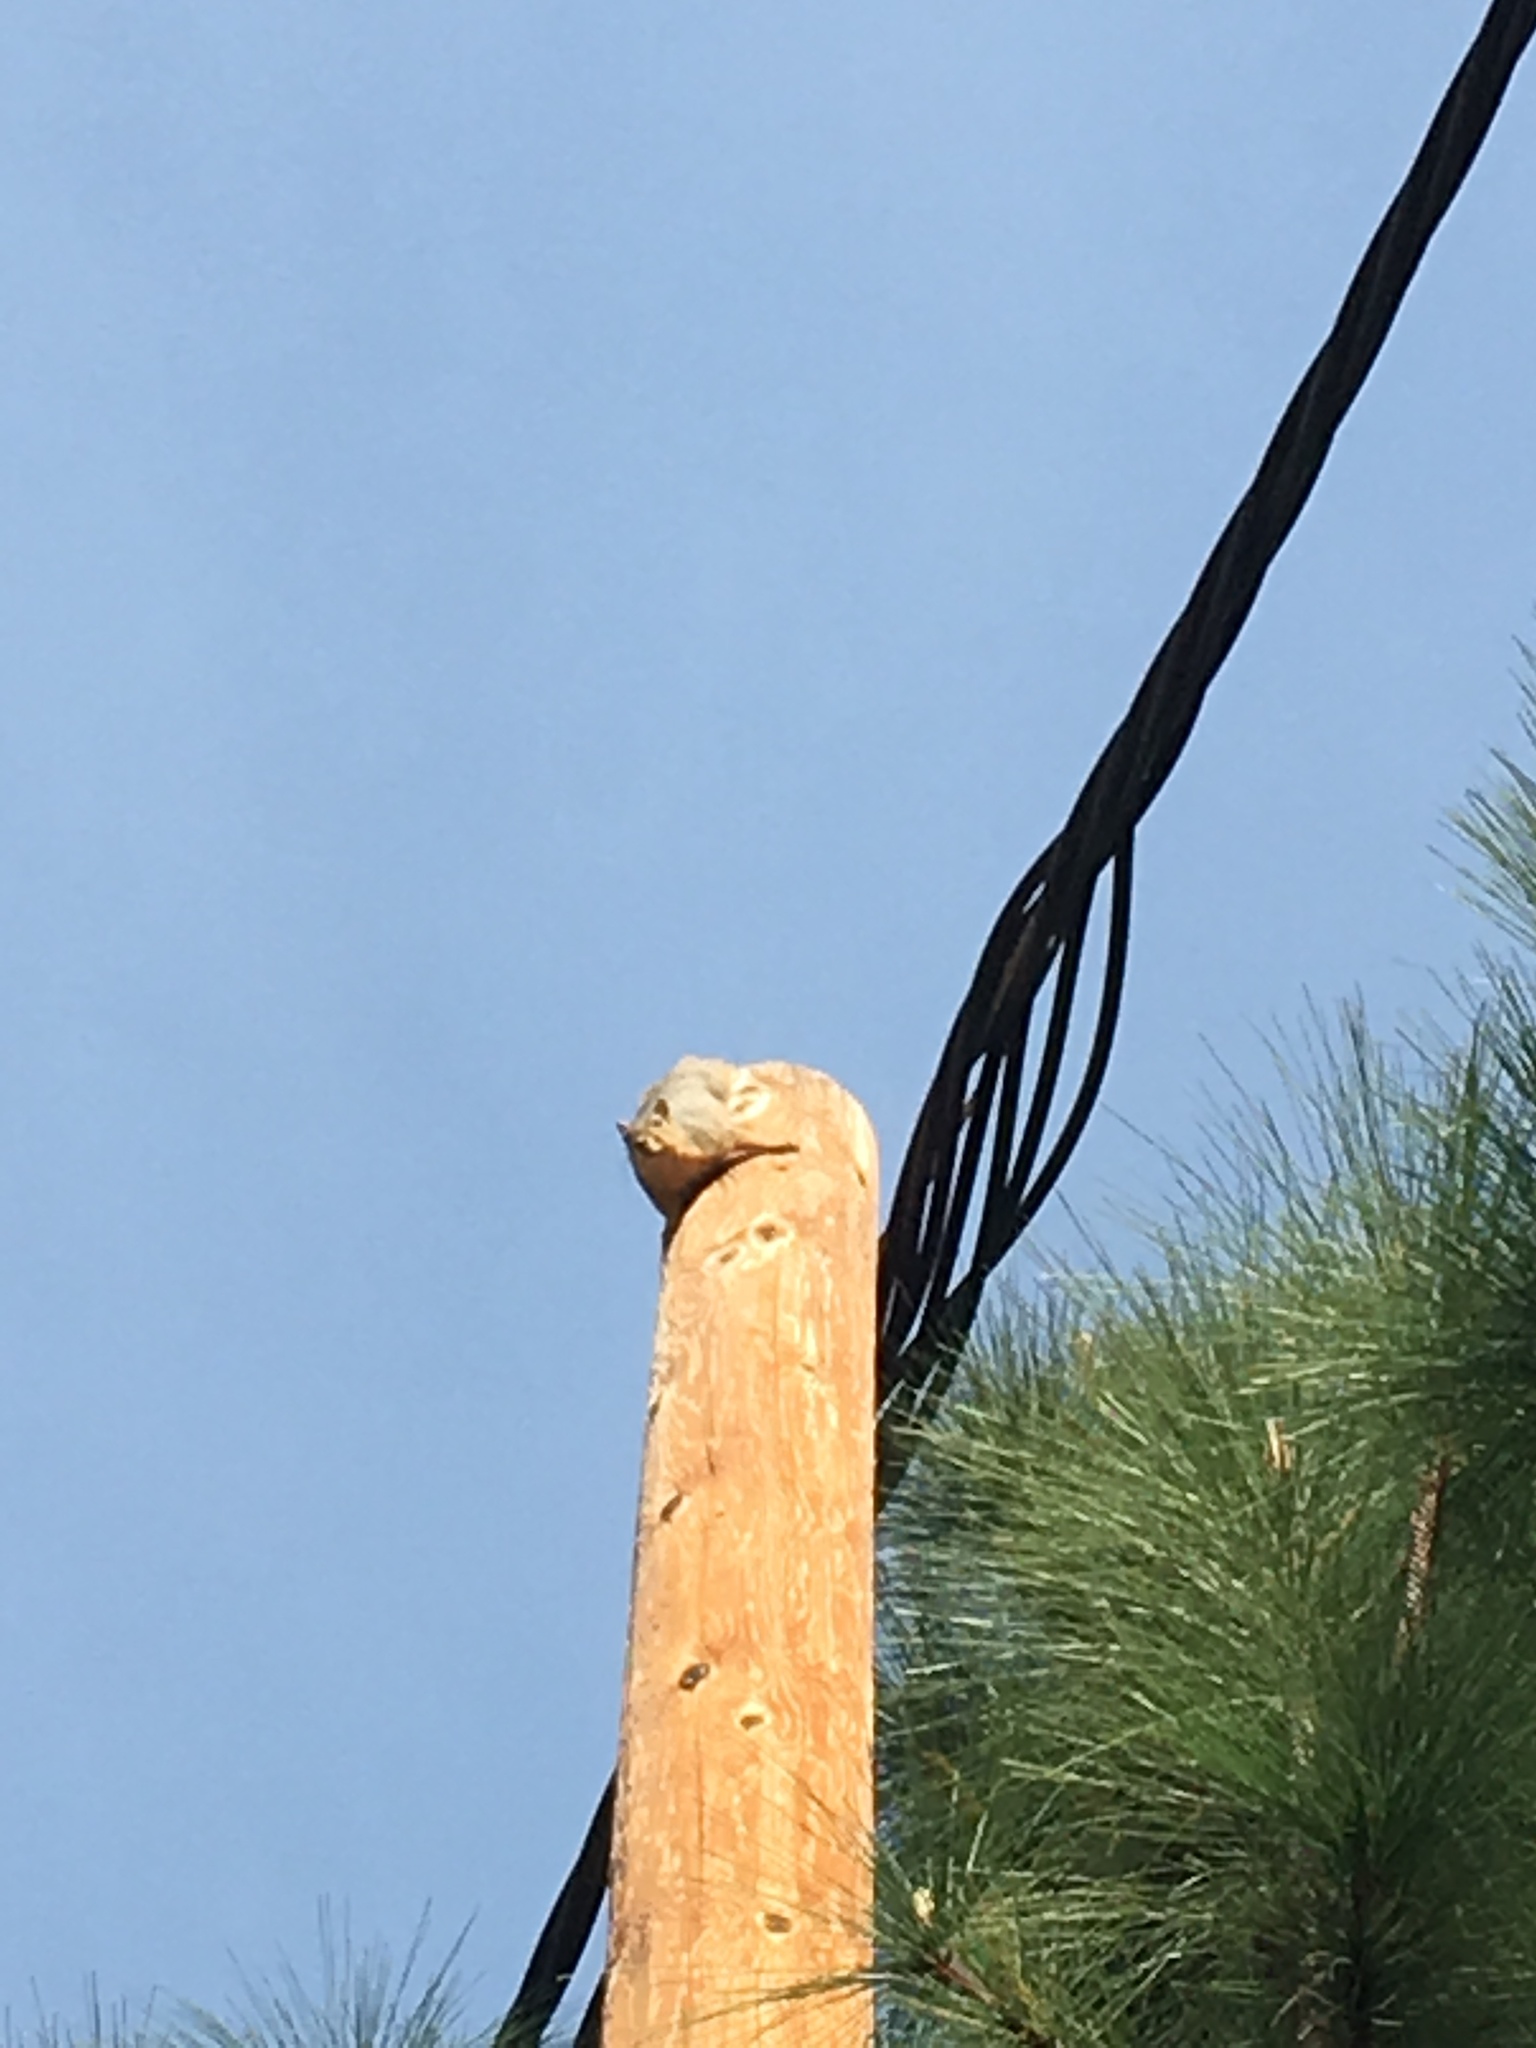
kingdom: Animalia
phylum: Chordata
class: Mammalia
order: Rodentia
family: Sciuridae
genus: Sciurus
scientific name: Sciurus niger
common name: Fox squirrel
